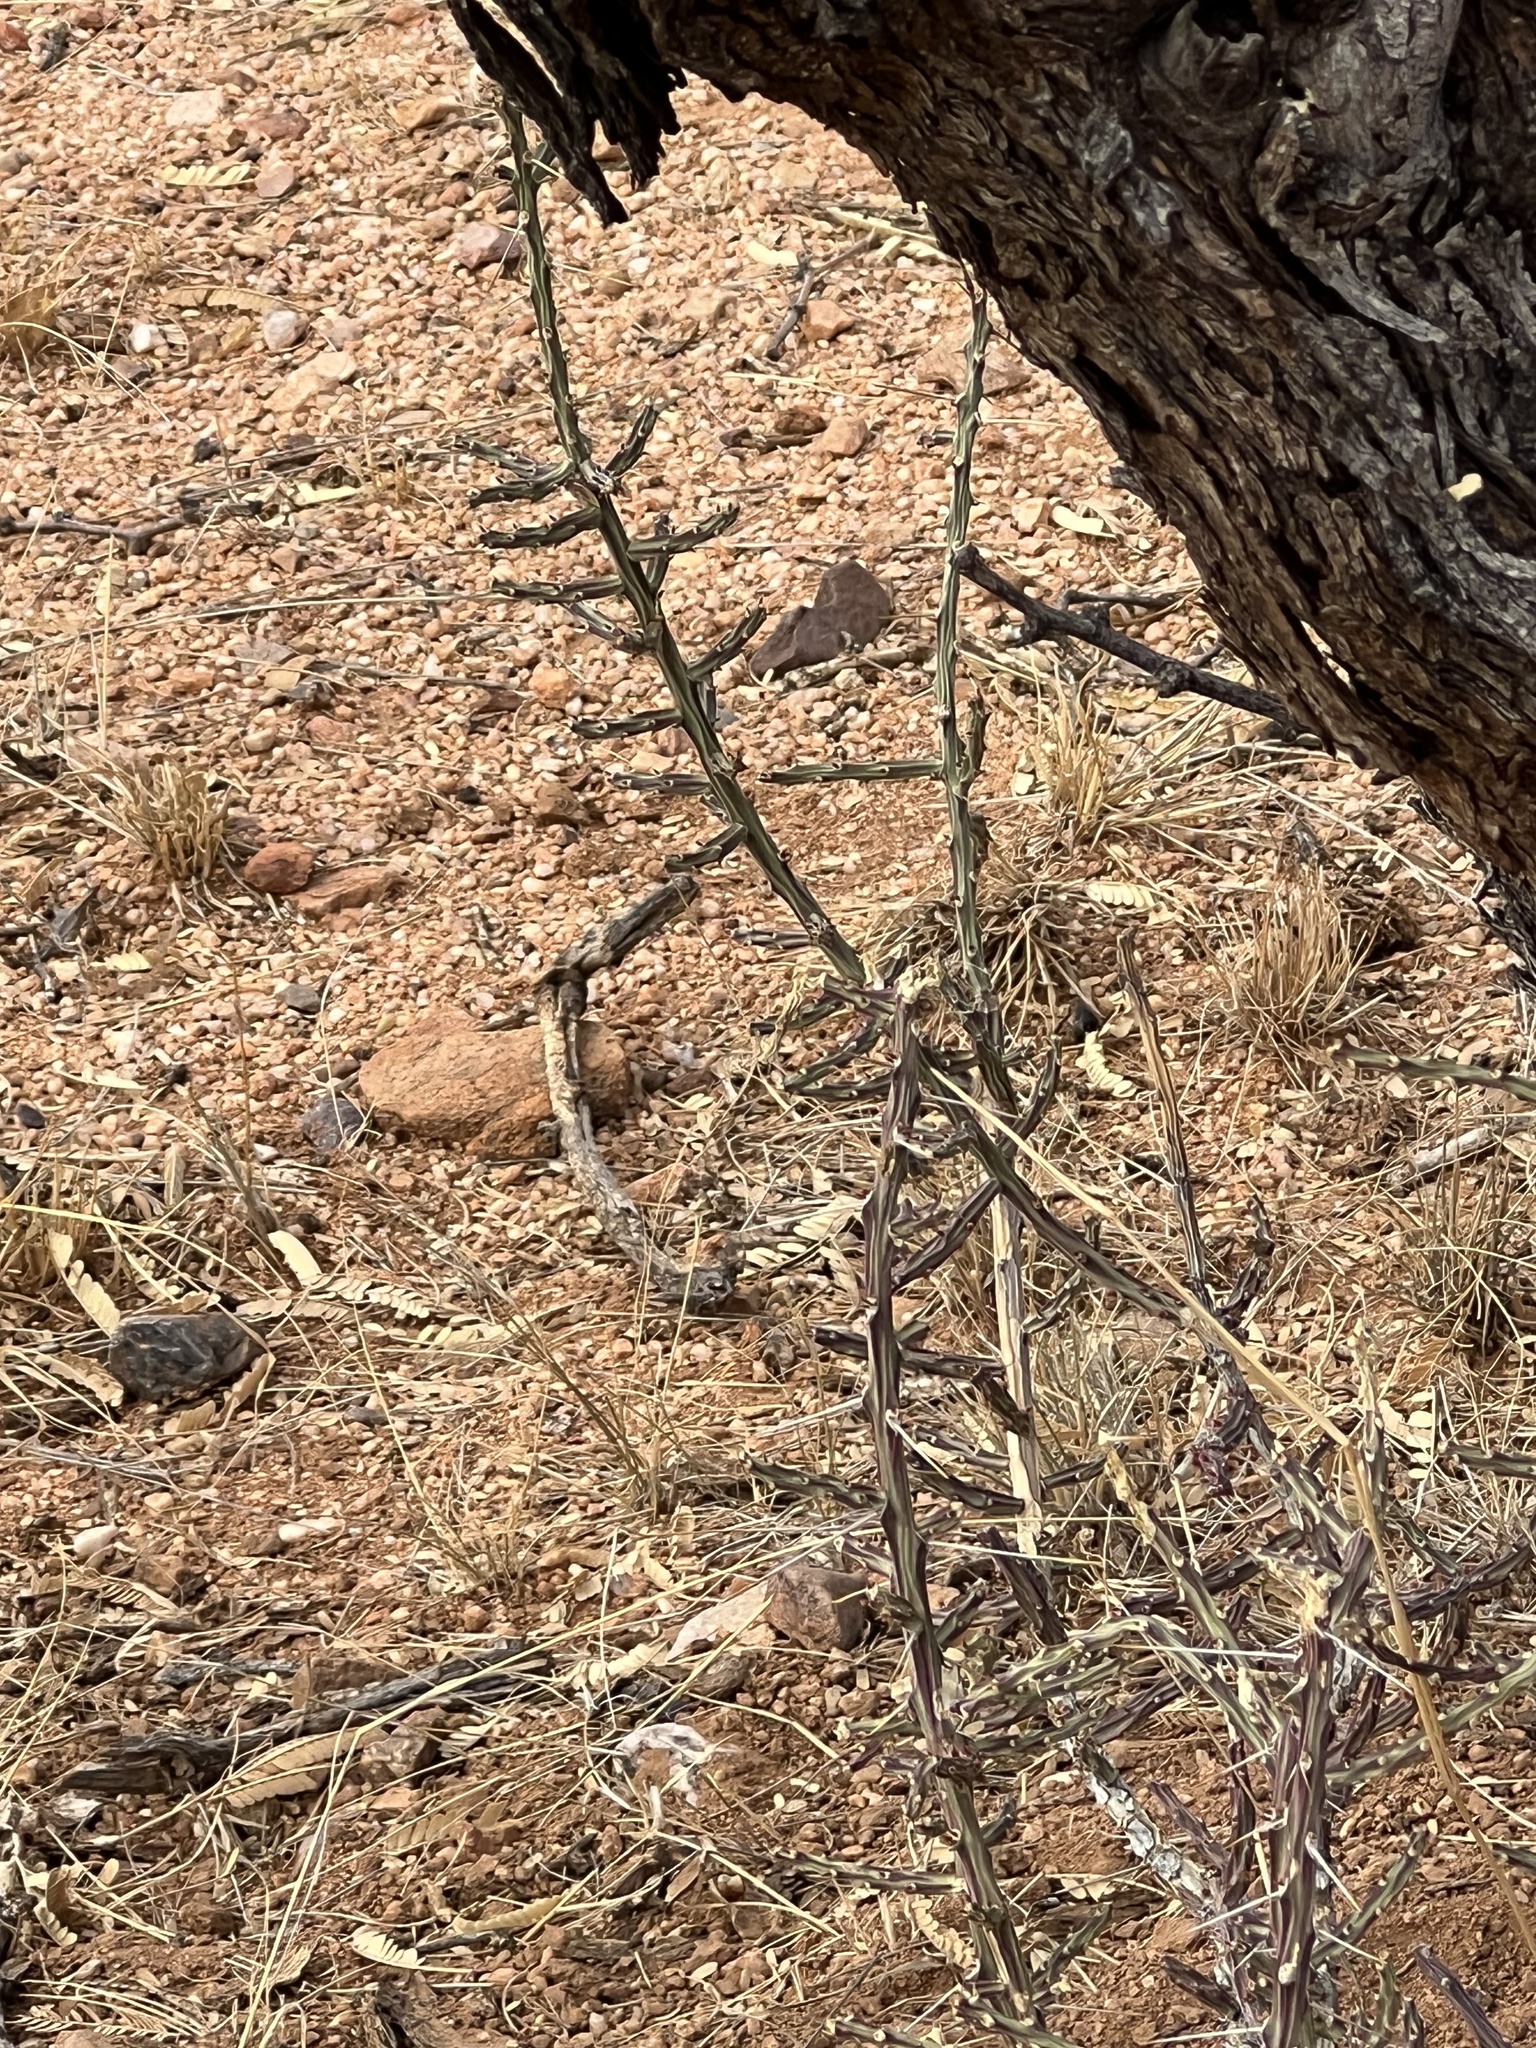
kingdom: Plantae
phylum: Tracheophyta
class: Magnoliopsida
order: Caryophyllales
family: Cactaceae
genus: Cylindropuntia
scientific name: Cylindropuntia leptocaulis
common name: Christmas cactus
